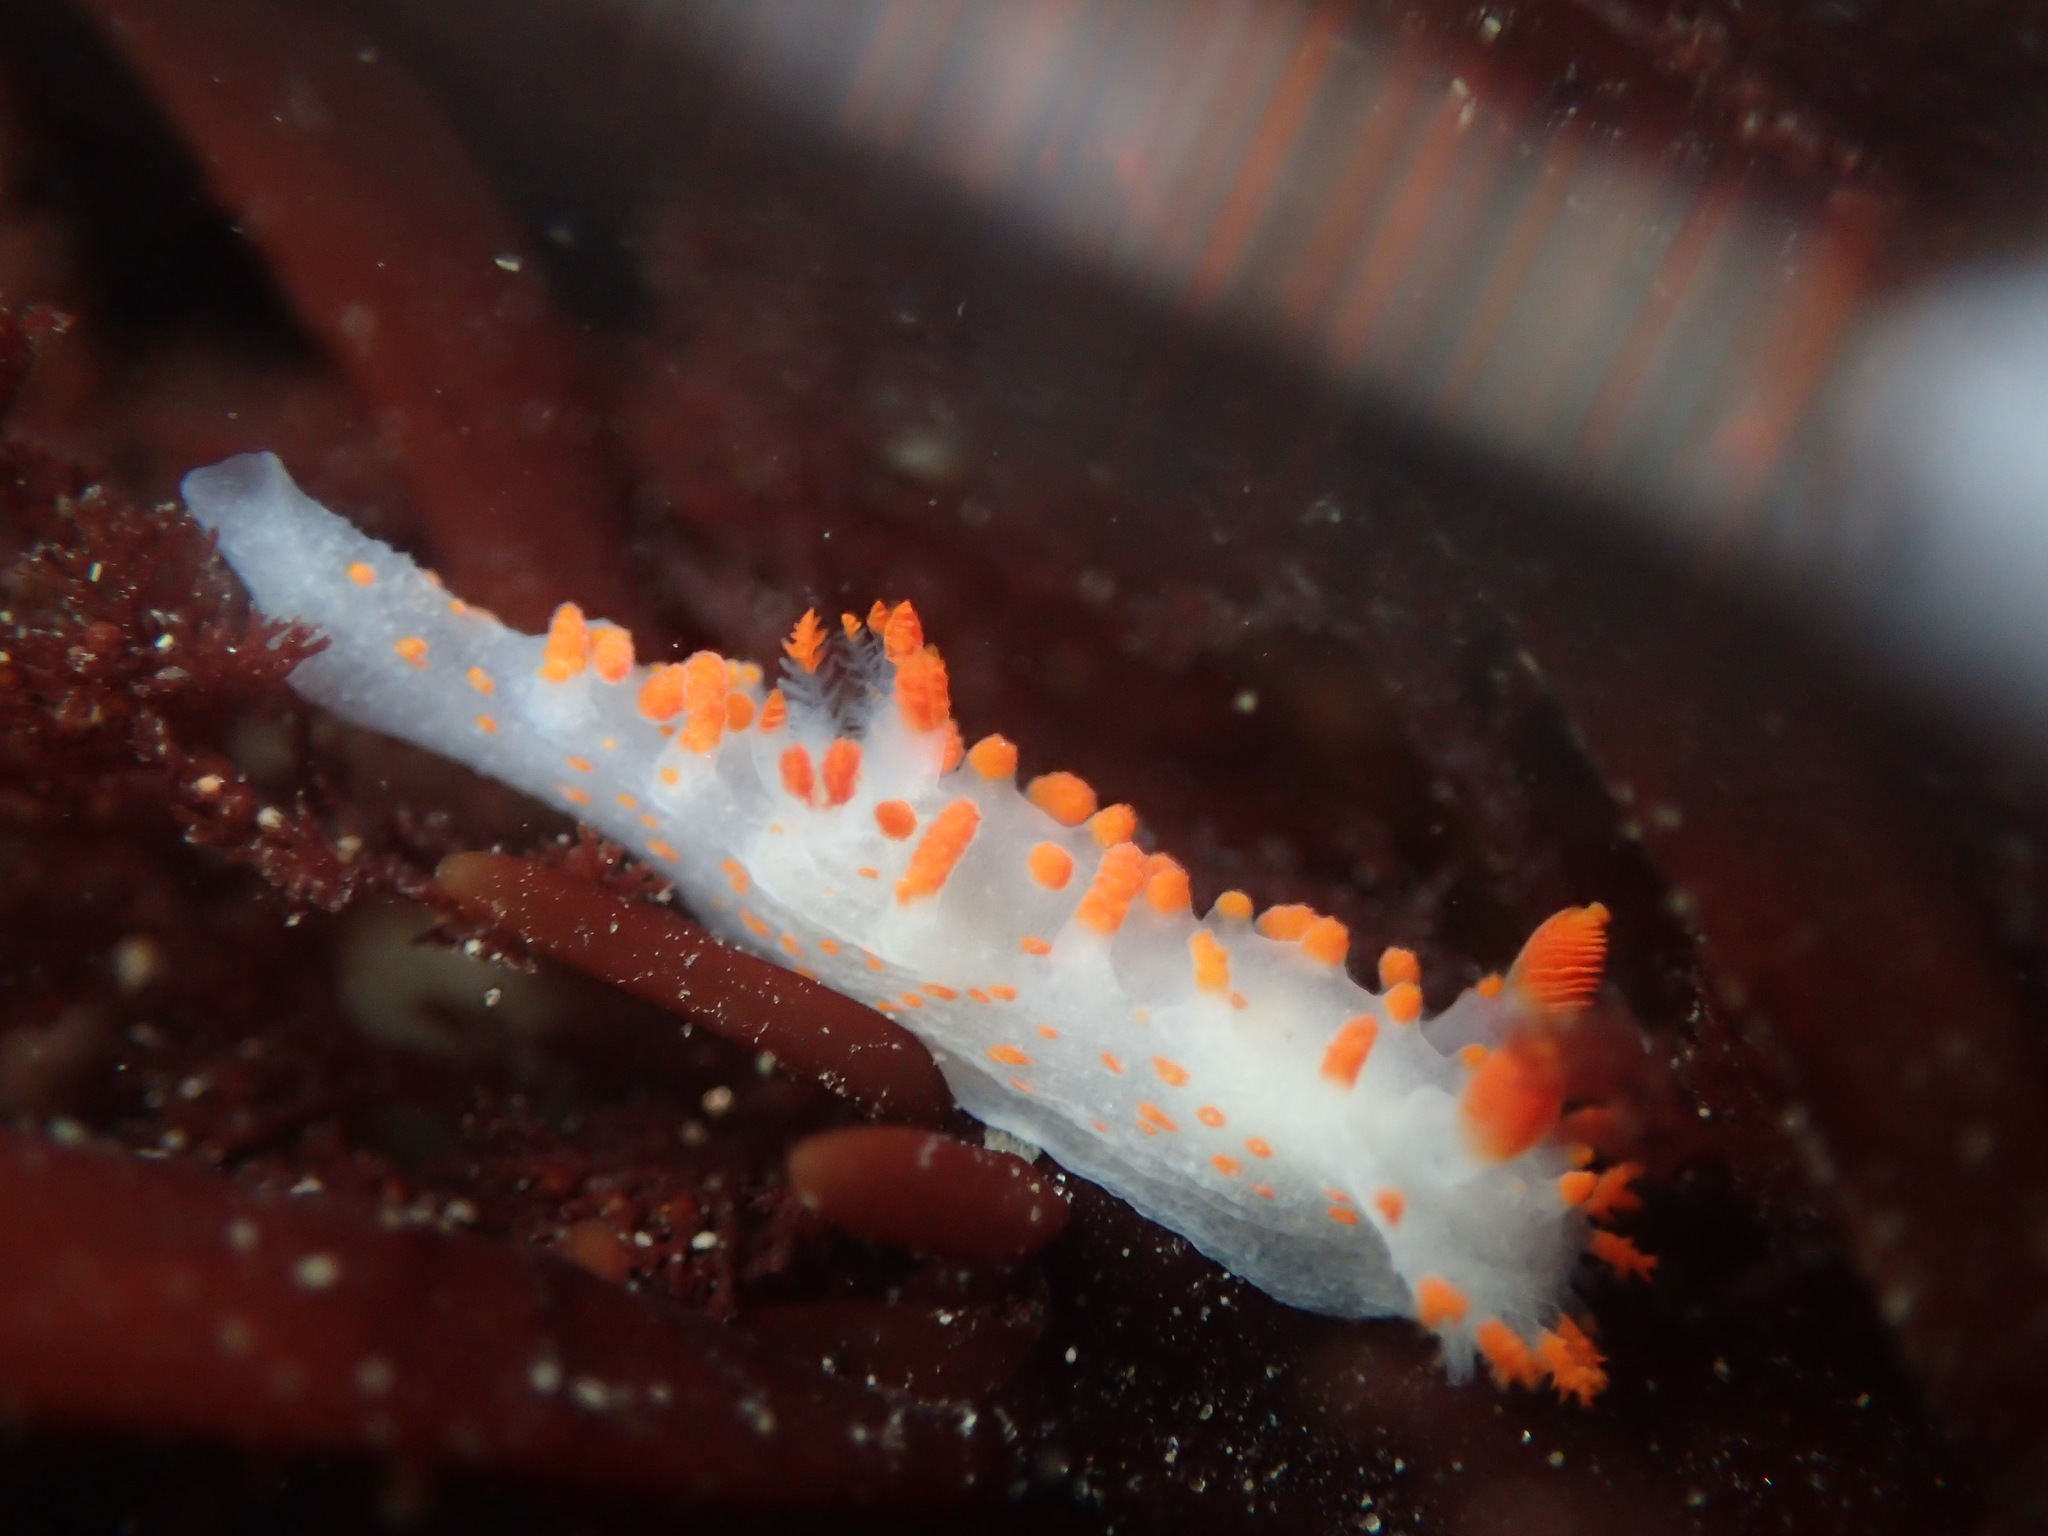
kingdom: Animalia
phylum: Mollusca
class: Gastropoda
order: Nudibranchia
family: Polyceridae
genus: Triopha
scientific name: Triopha catalinae
